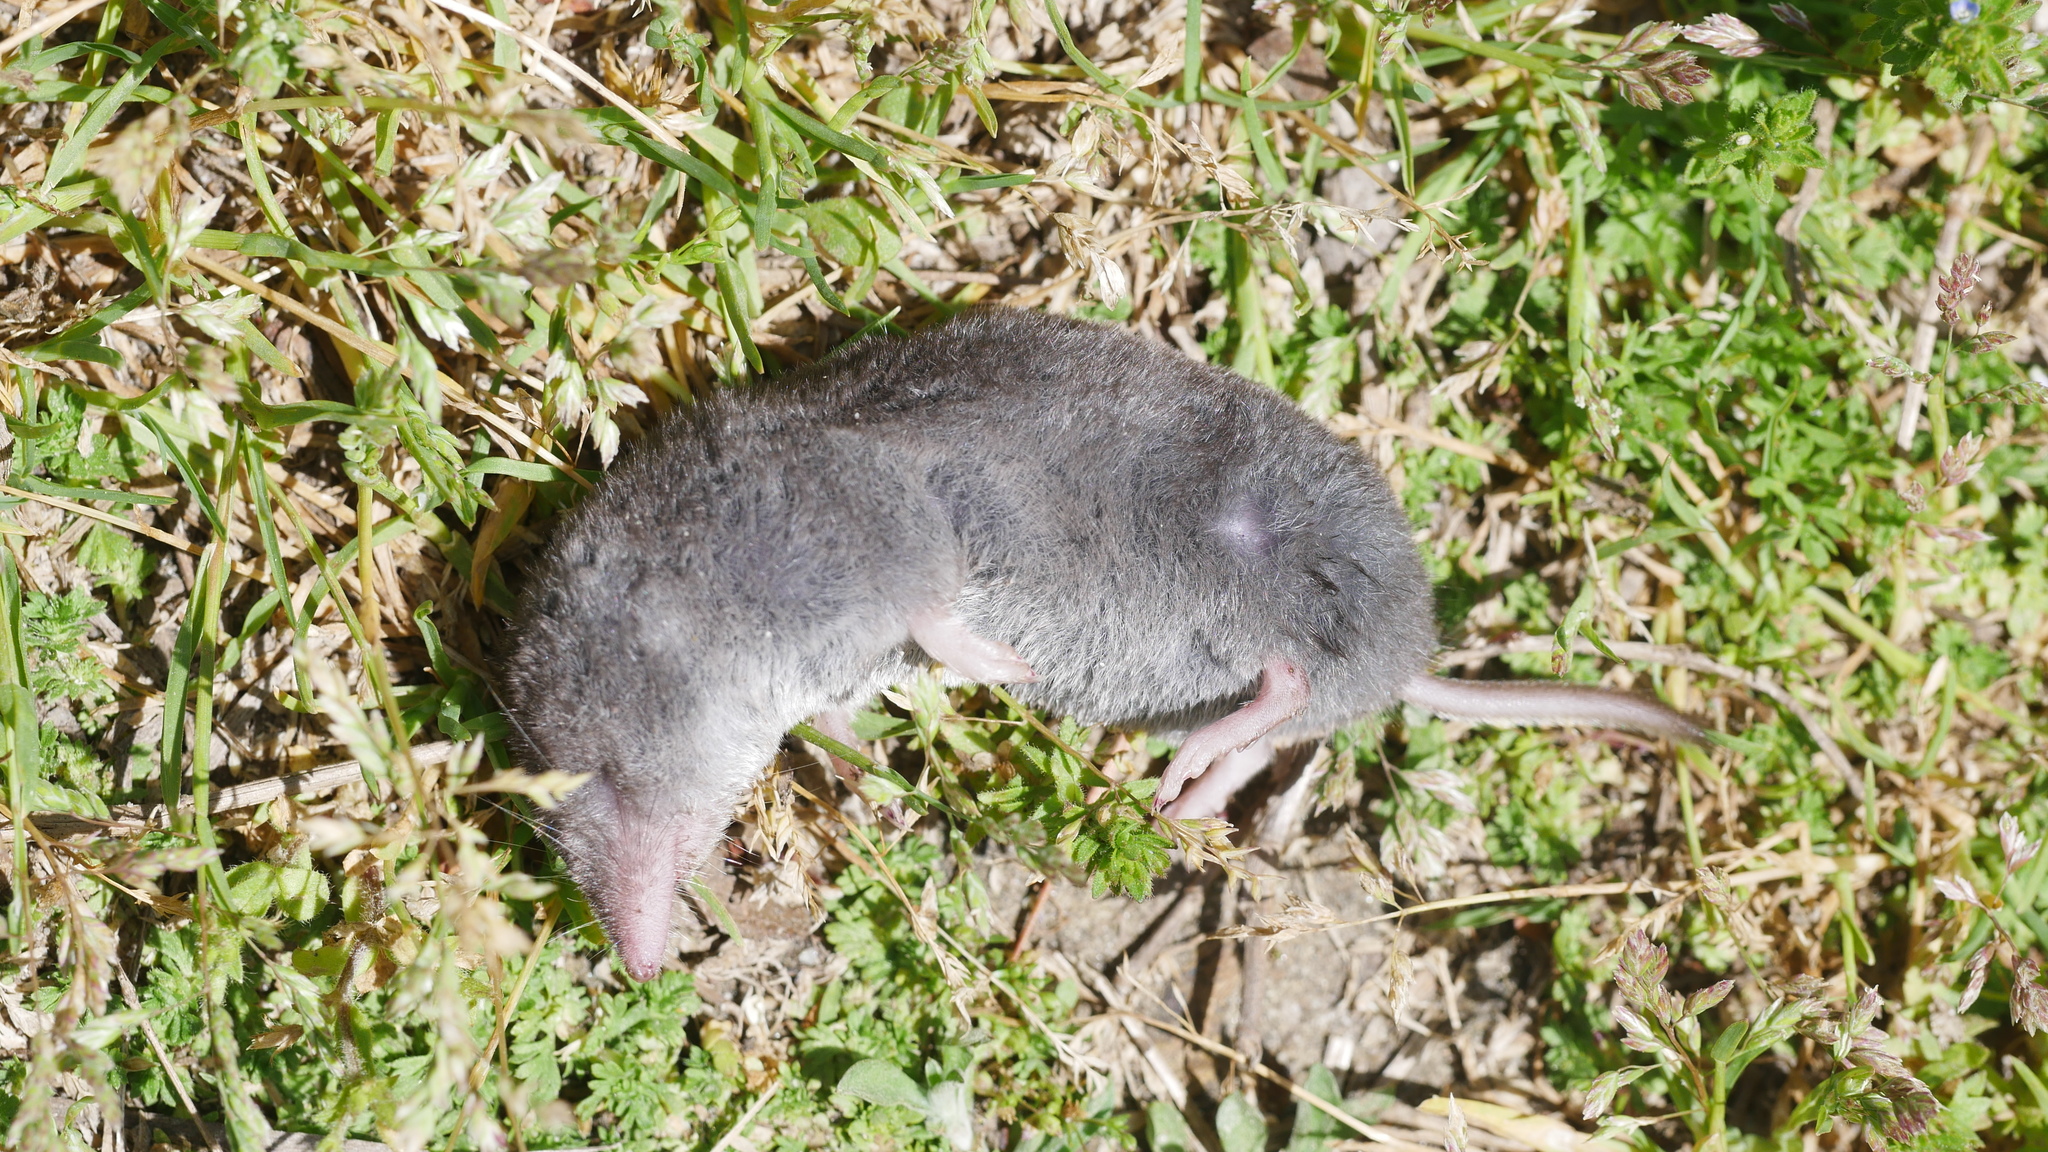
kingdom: Animalia
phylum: Chordata
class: Mammalia
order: Soricomorpha
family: Soricidae
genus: Blarina
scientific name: Blarina brevicauda
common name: Northern short-tailed shrew
